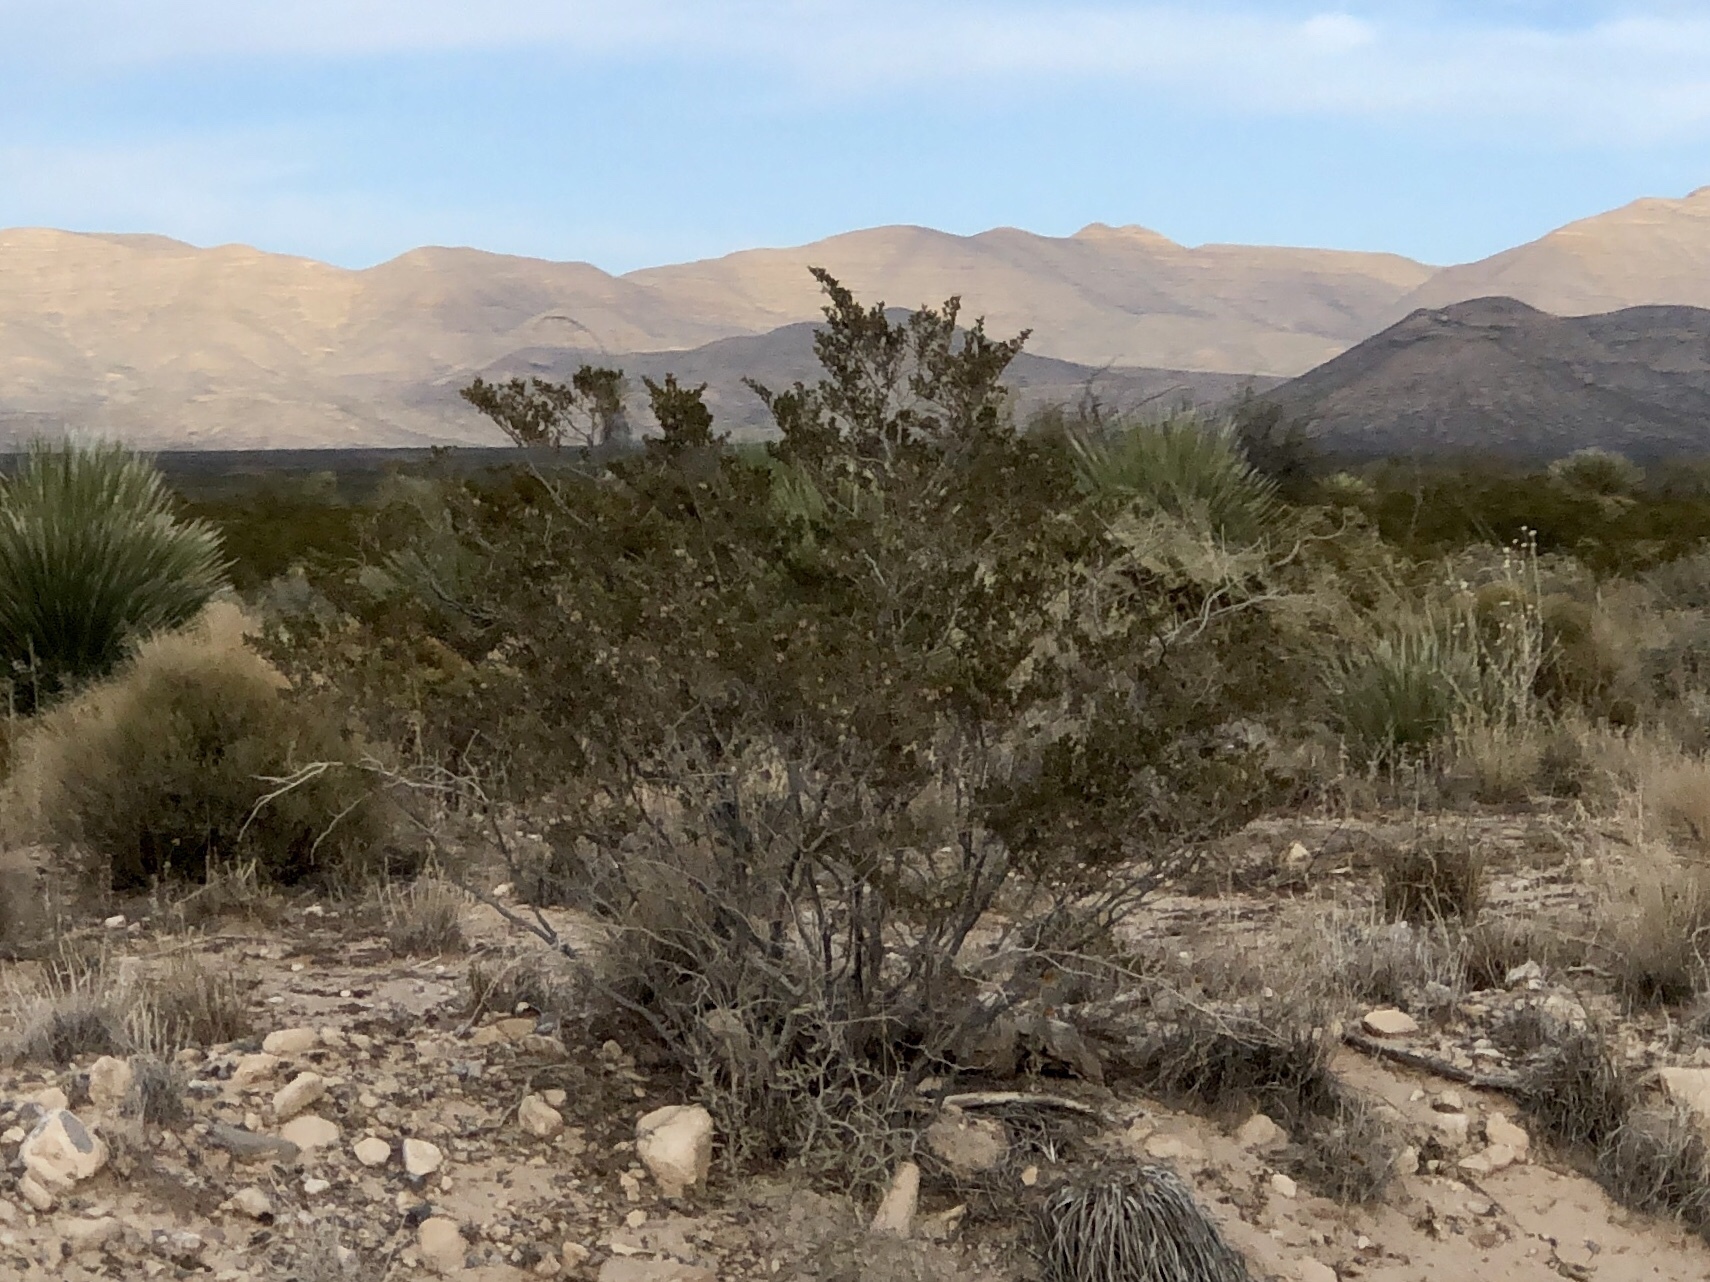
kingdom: Plantae
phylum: Tracheophyta
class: Magnoliopsida
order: Zygophyllales
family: Zygophyllaceae
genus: Larrea
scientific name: Larrea tridentata
